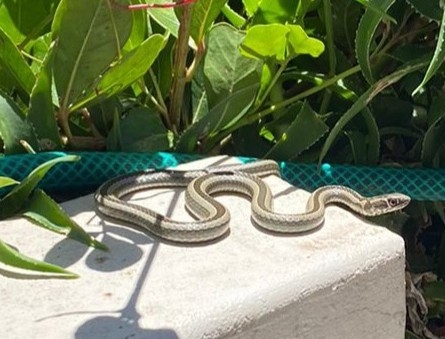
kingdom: Animalia
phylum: Chordata
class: Squamata
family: Psammophiidae
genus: Psammophis
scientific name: Psammophis crucifer
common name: Cross-marked grass snake
